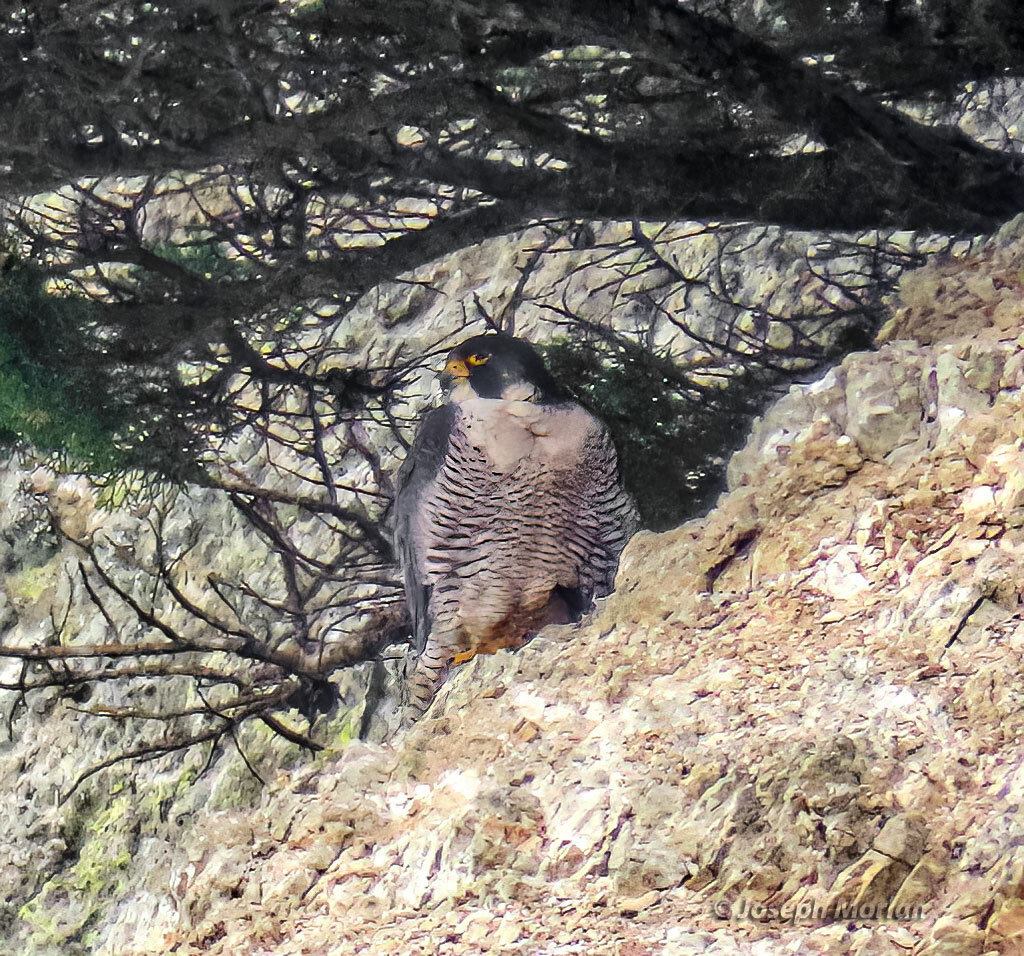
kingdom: Animalia
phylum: Chordata
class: Aves
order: Falconiformes
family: Falconidae
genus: Falco
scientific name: Falco peregrinus
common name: Peregrine falcon
